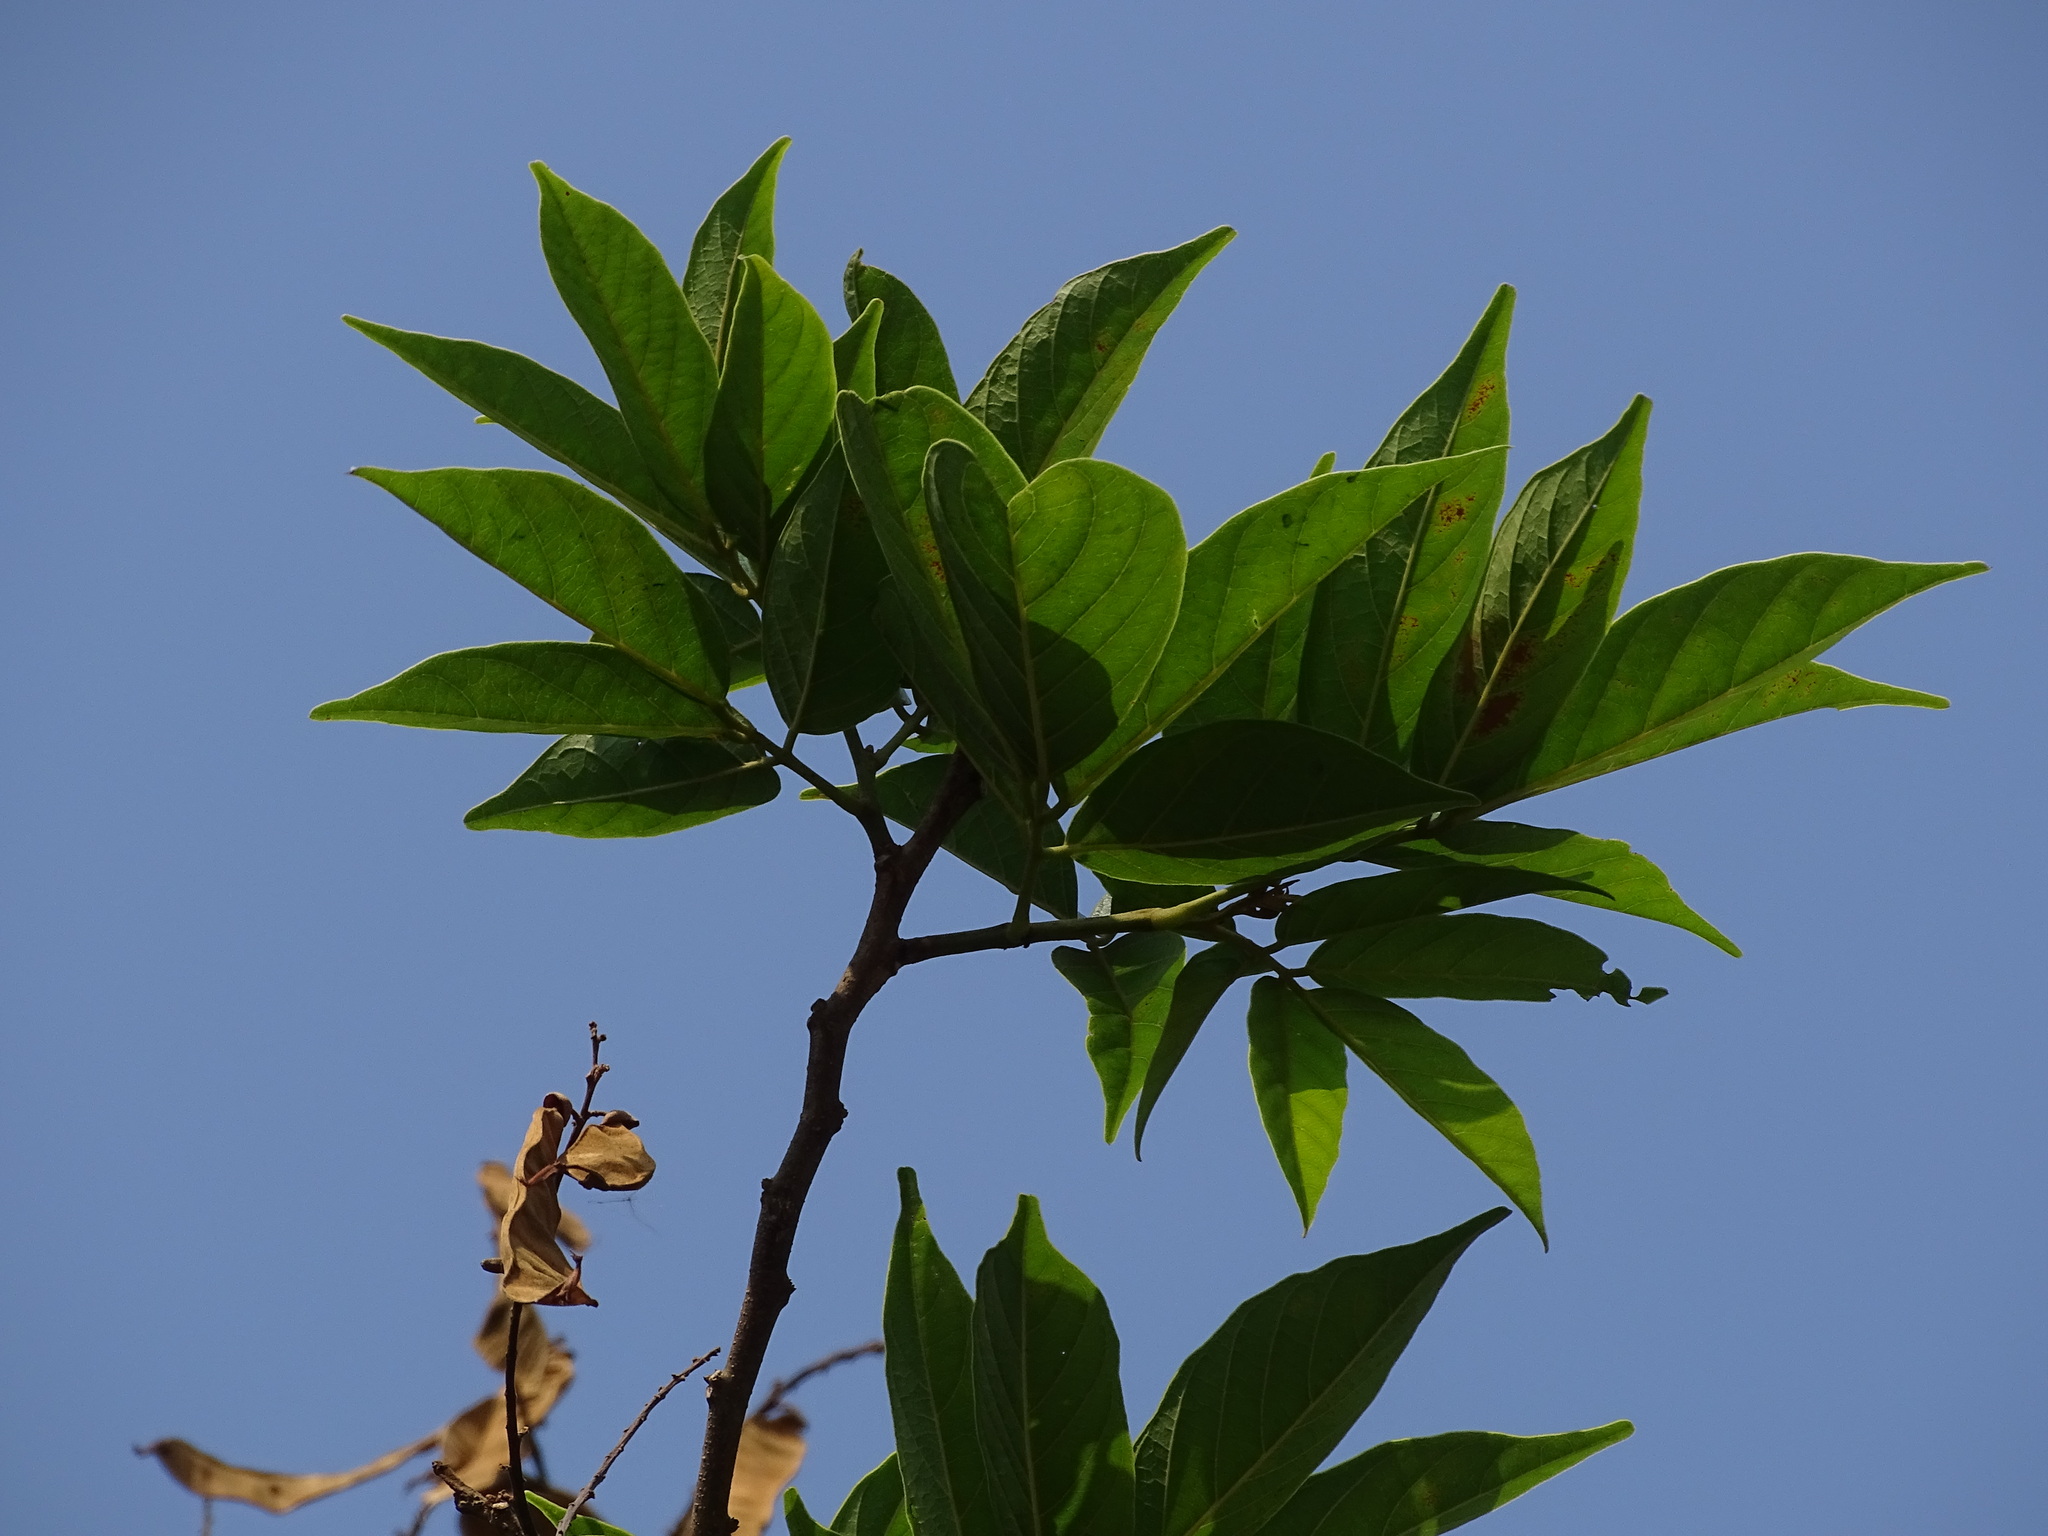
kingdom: Plantae
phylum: Tracheophyta
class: Magnoliopsida
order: Fabales
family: Fabaceae
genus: Lonchocarpus
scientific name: Lonchocarpus salvadorensis
